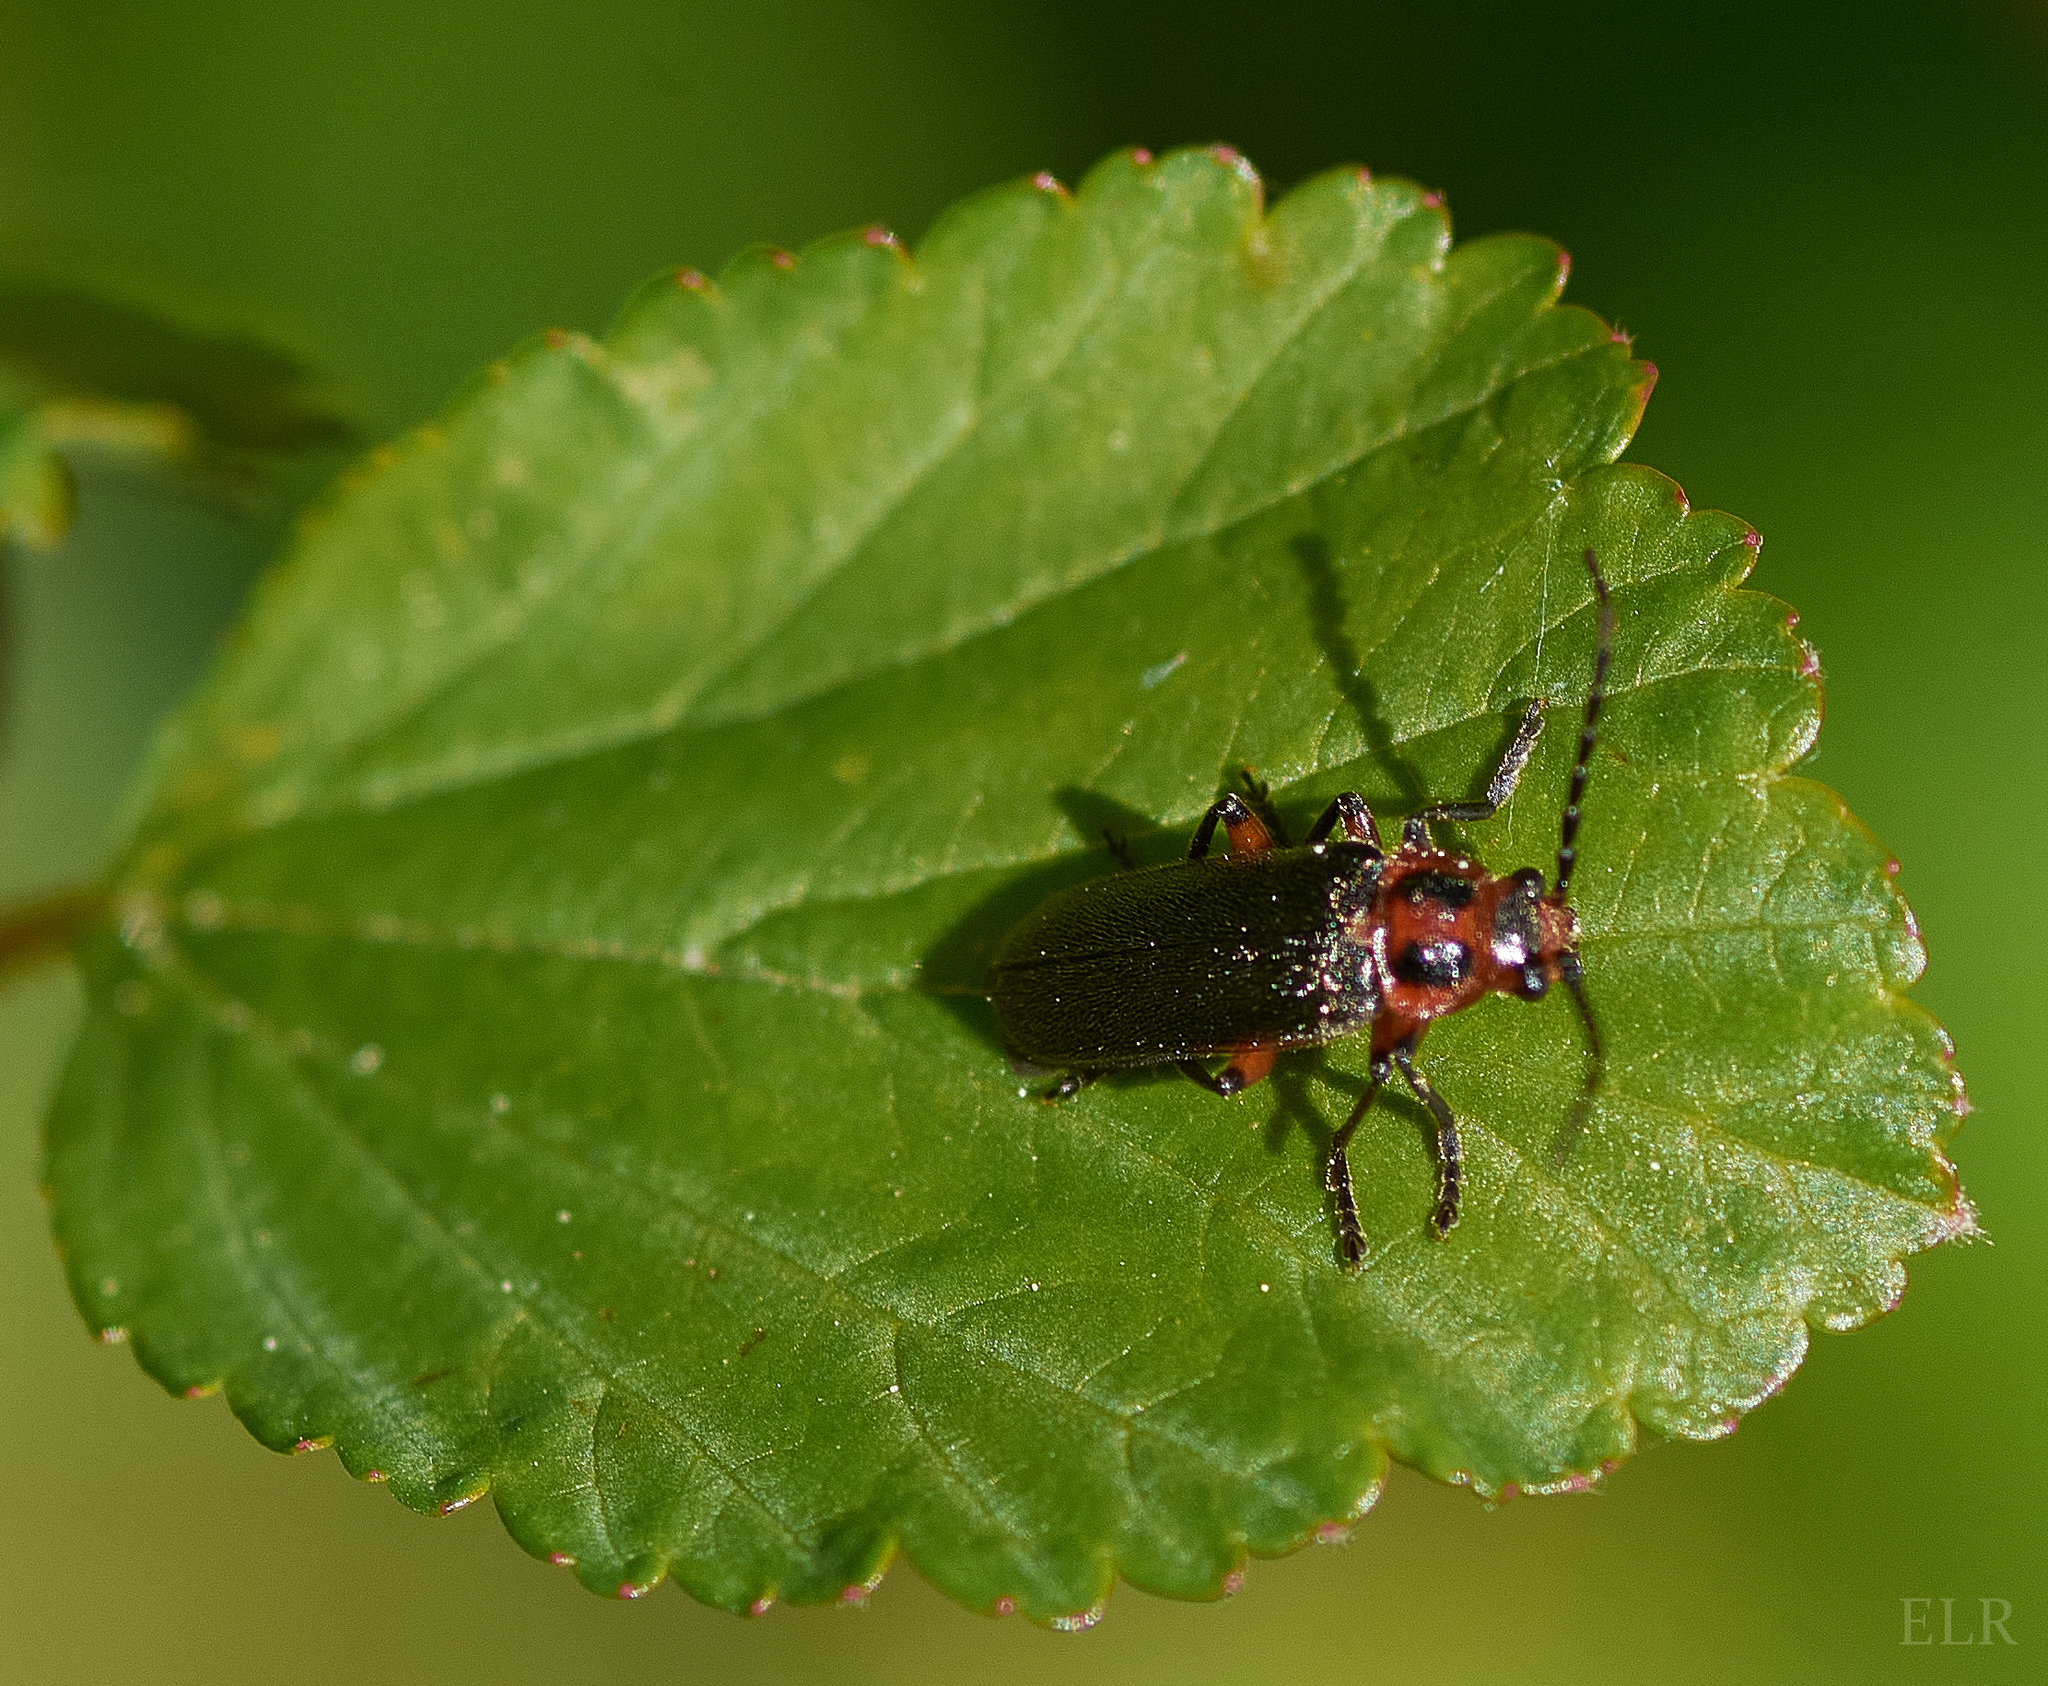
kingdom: Animalia
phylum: Arthropoda
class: Insecta
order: Coleoptera
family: Cantharidae
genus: Atalantycha
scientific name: Atalantycha bilineata
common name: Two-lined leatherwing
